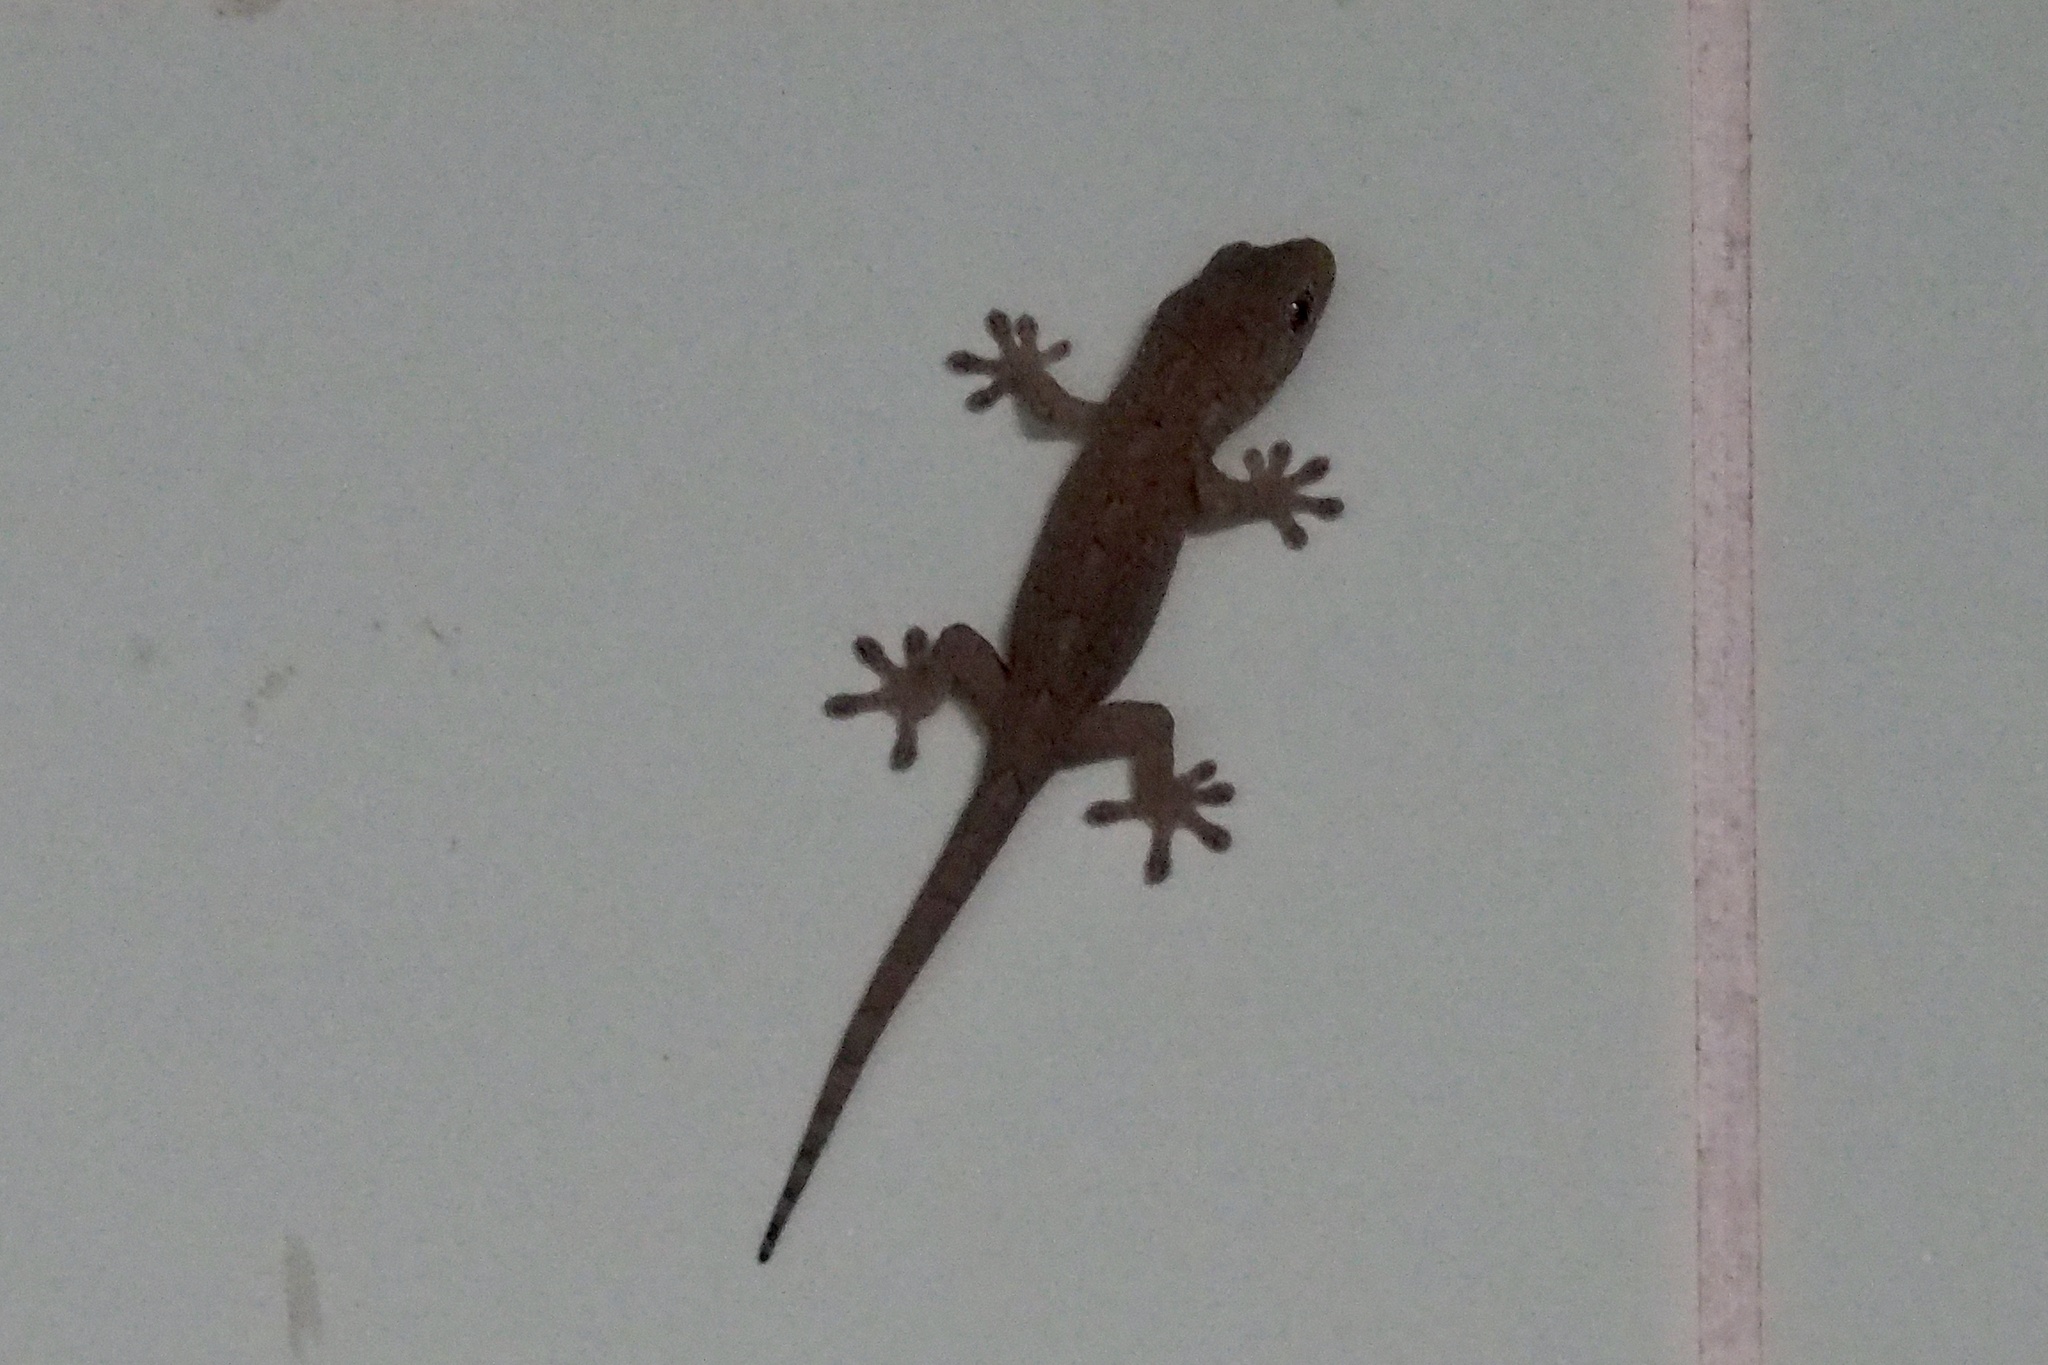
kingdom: Animalia
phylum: Chordata
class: Squamata
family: Gekkonidae
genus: Gekko
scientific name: Gekko japonicus
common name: Schlegel's japanese gecko
